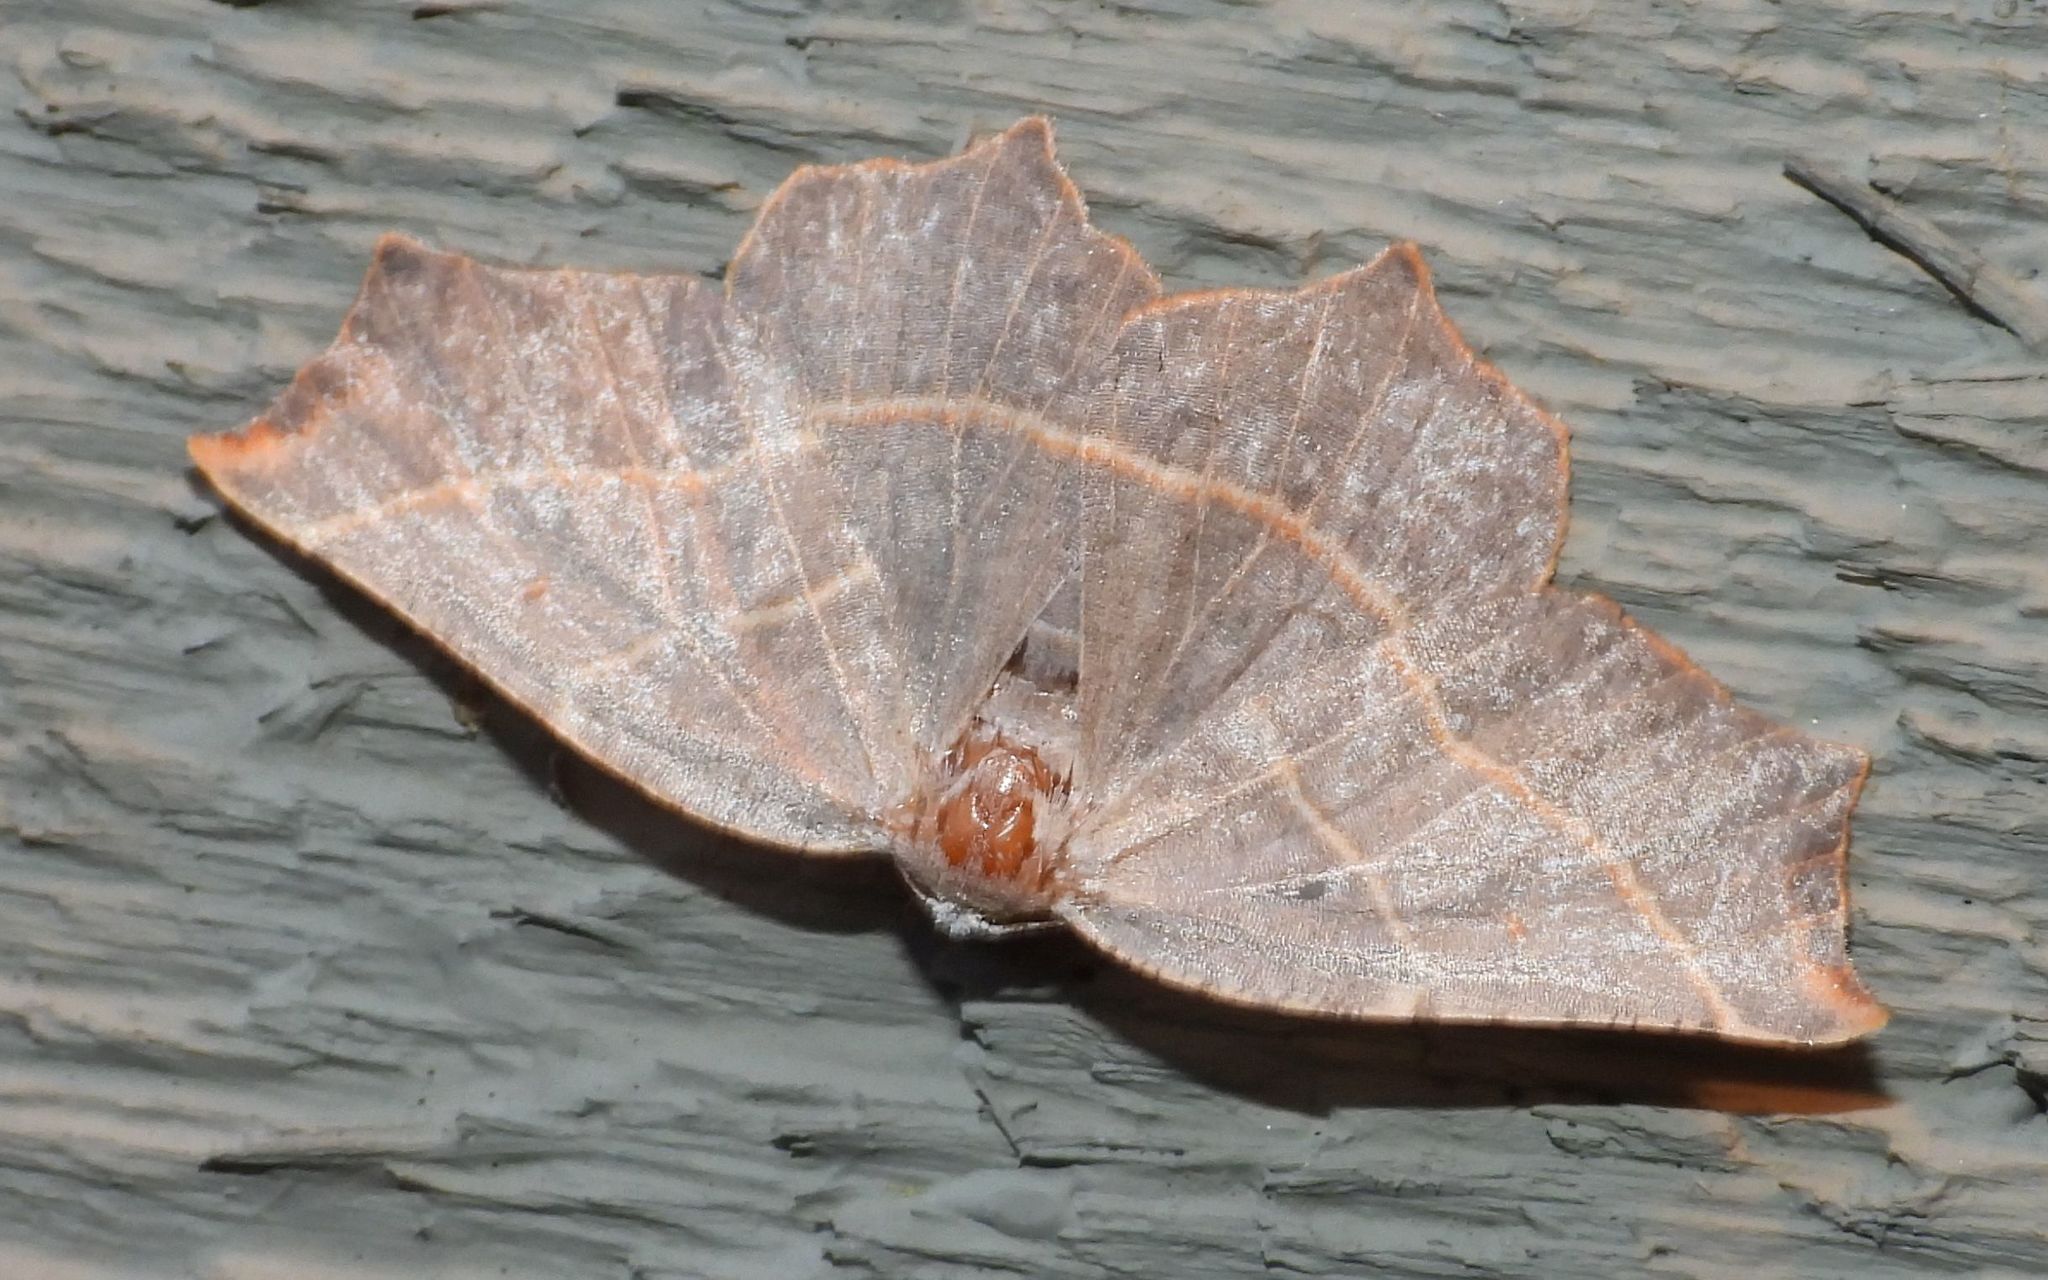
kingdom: Animalia
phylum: Arthropoda
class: Insecta
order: Lepidoptera
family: Geometridae
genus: Metanema
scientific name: Metanema inatomaria
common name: Pale metanema
